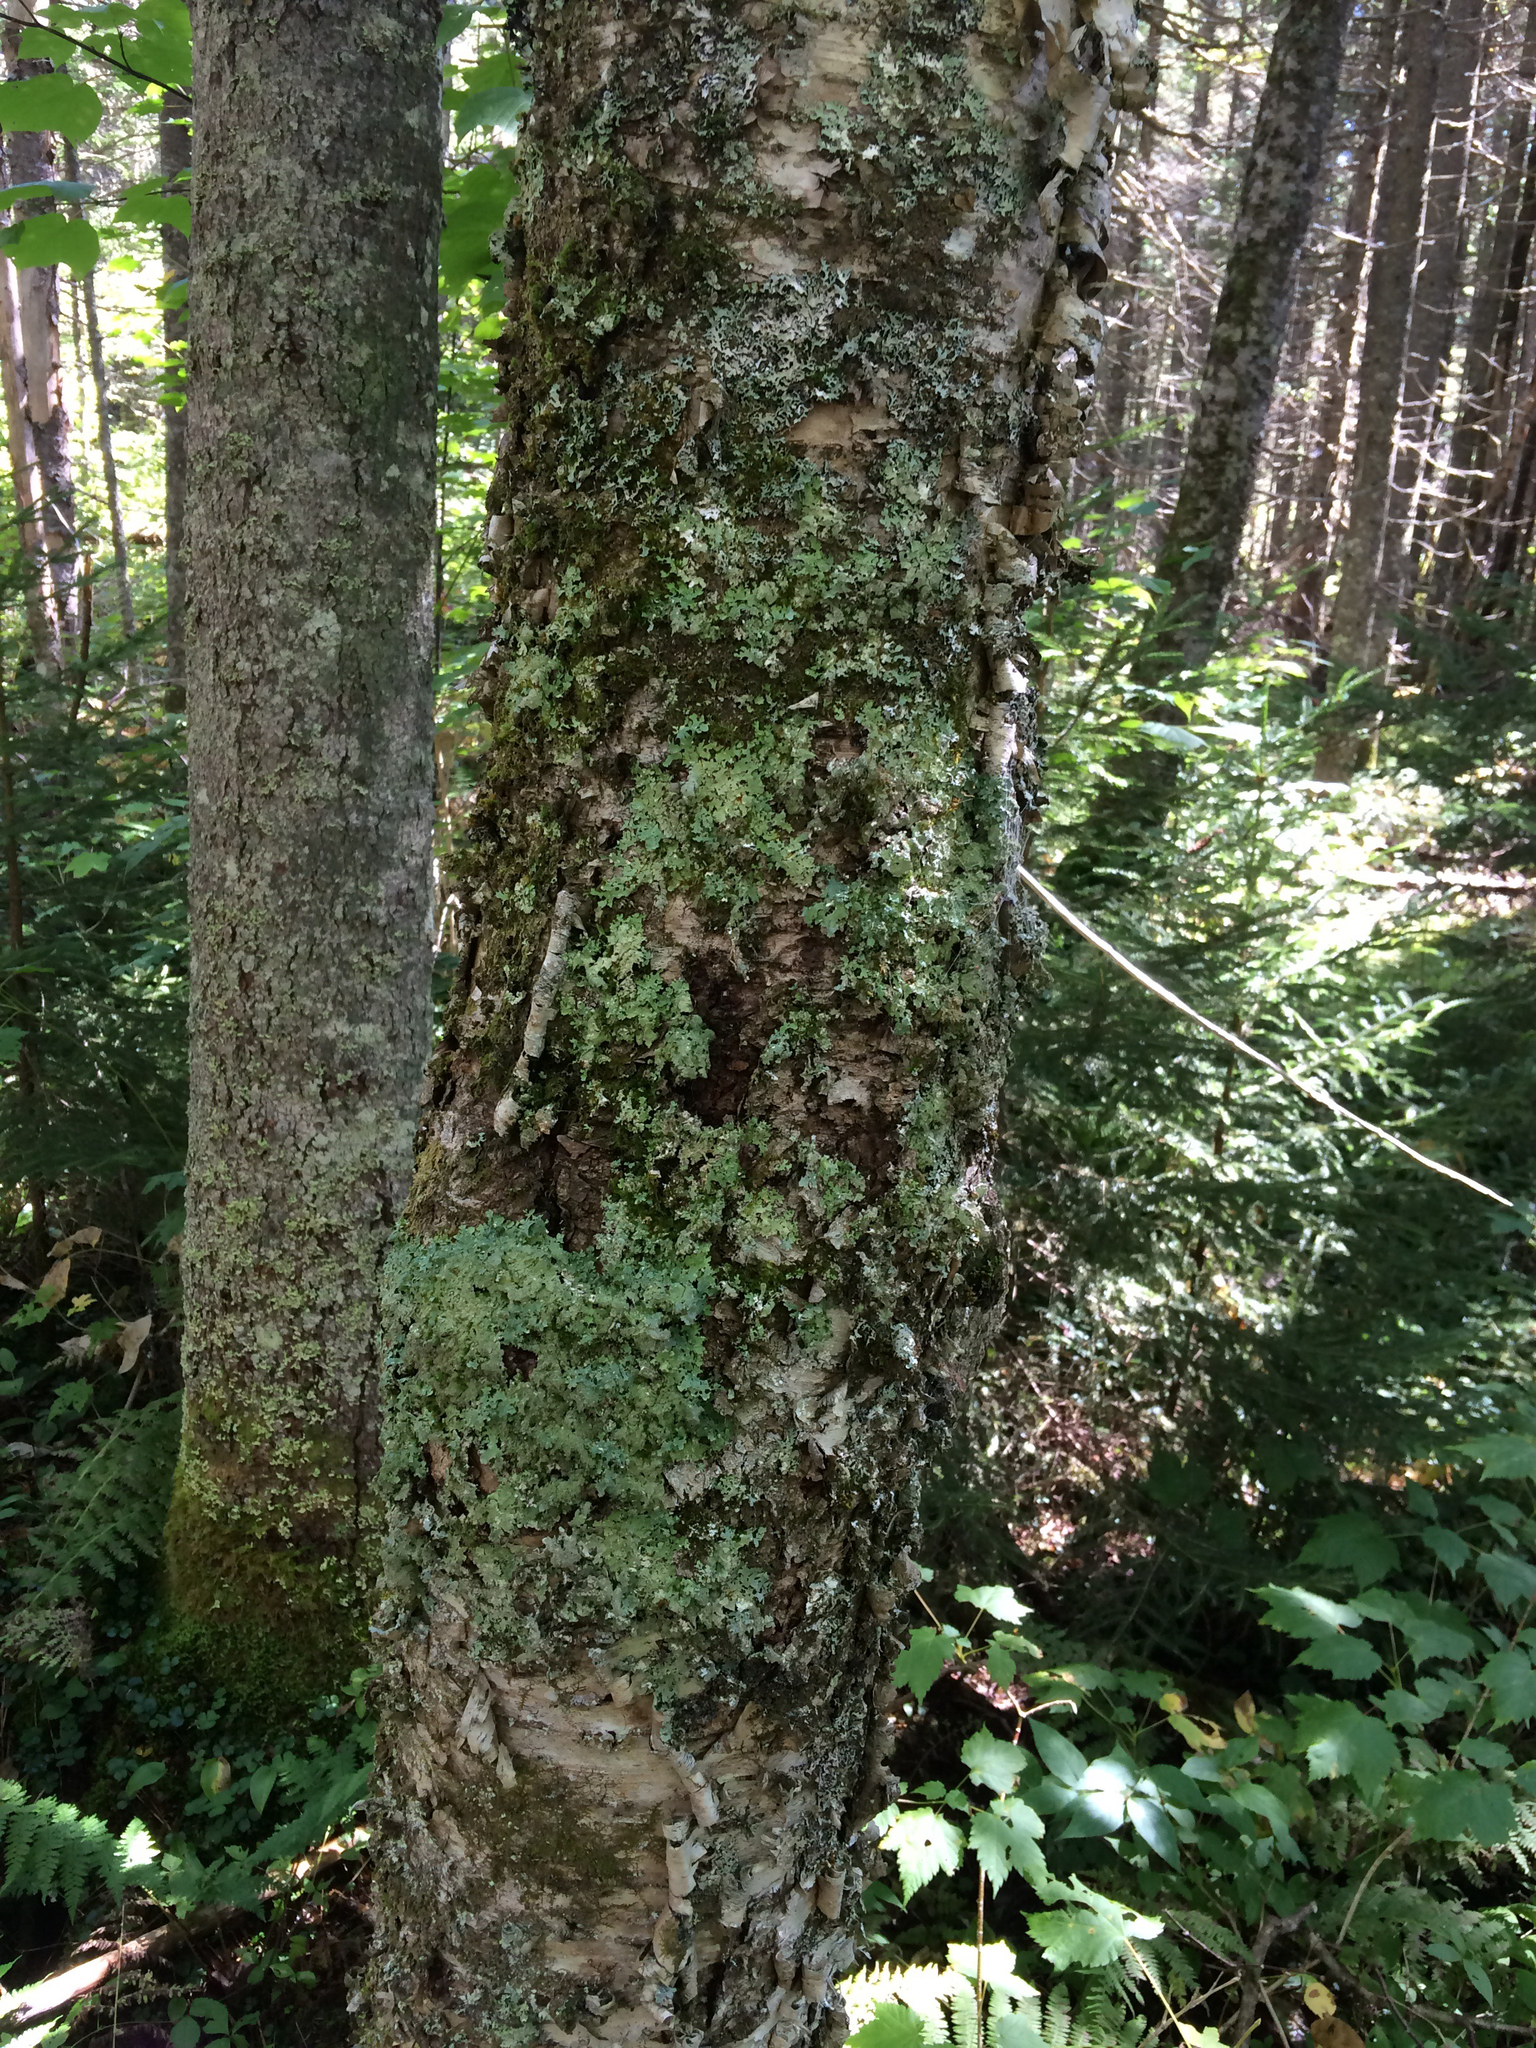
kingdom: Plantae
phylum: Tracheophyta
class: Magnoliopsida
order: Fagales
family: Betulaceae
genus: Betula
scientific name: Betula alleghaniensis
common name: Yellow birch
